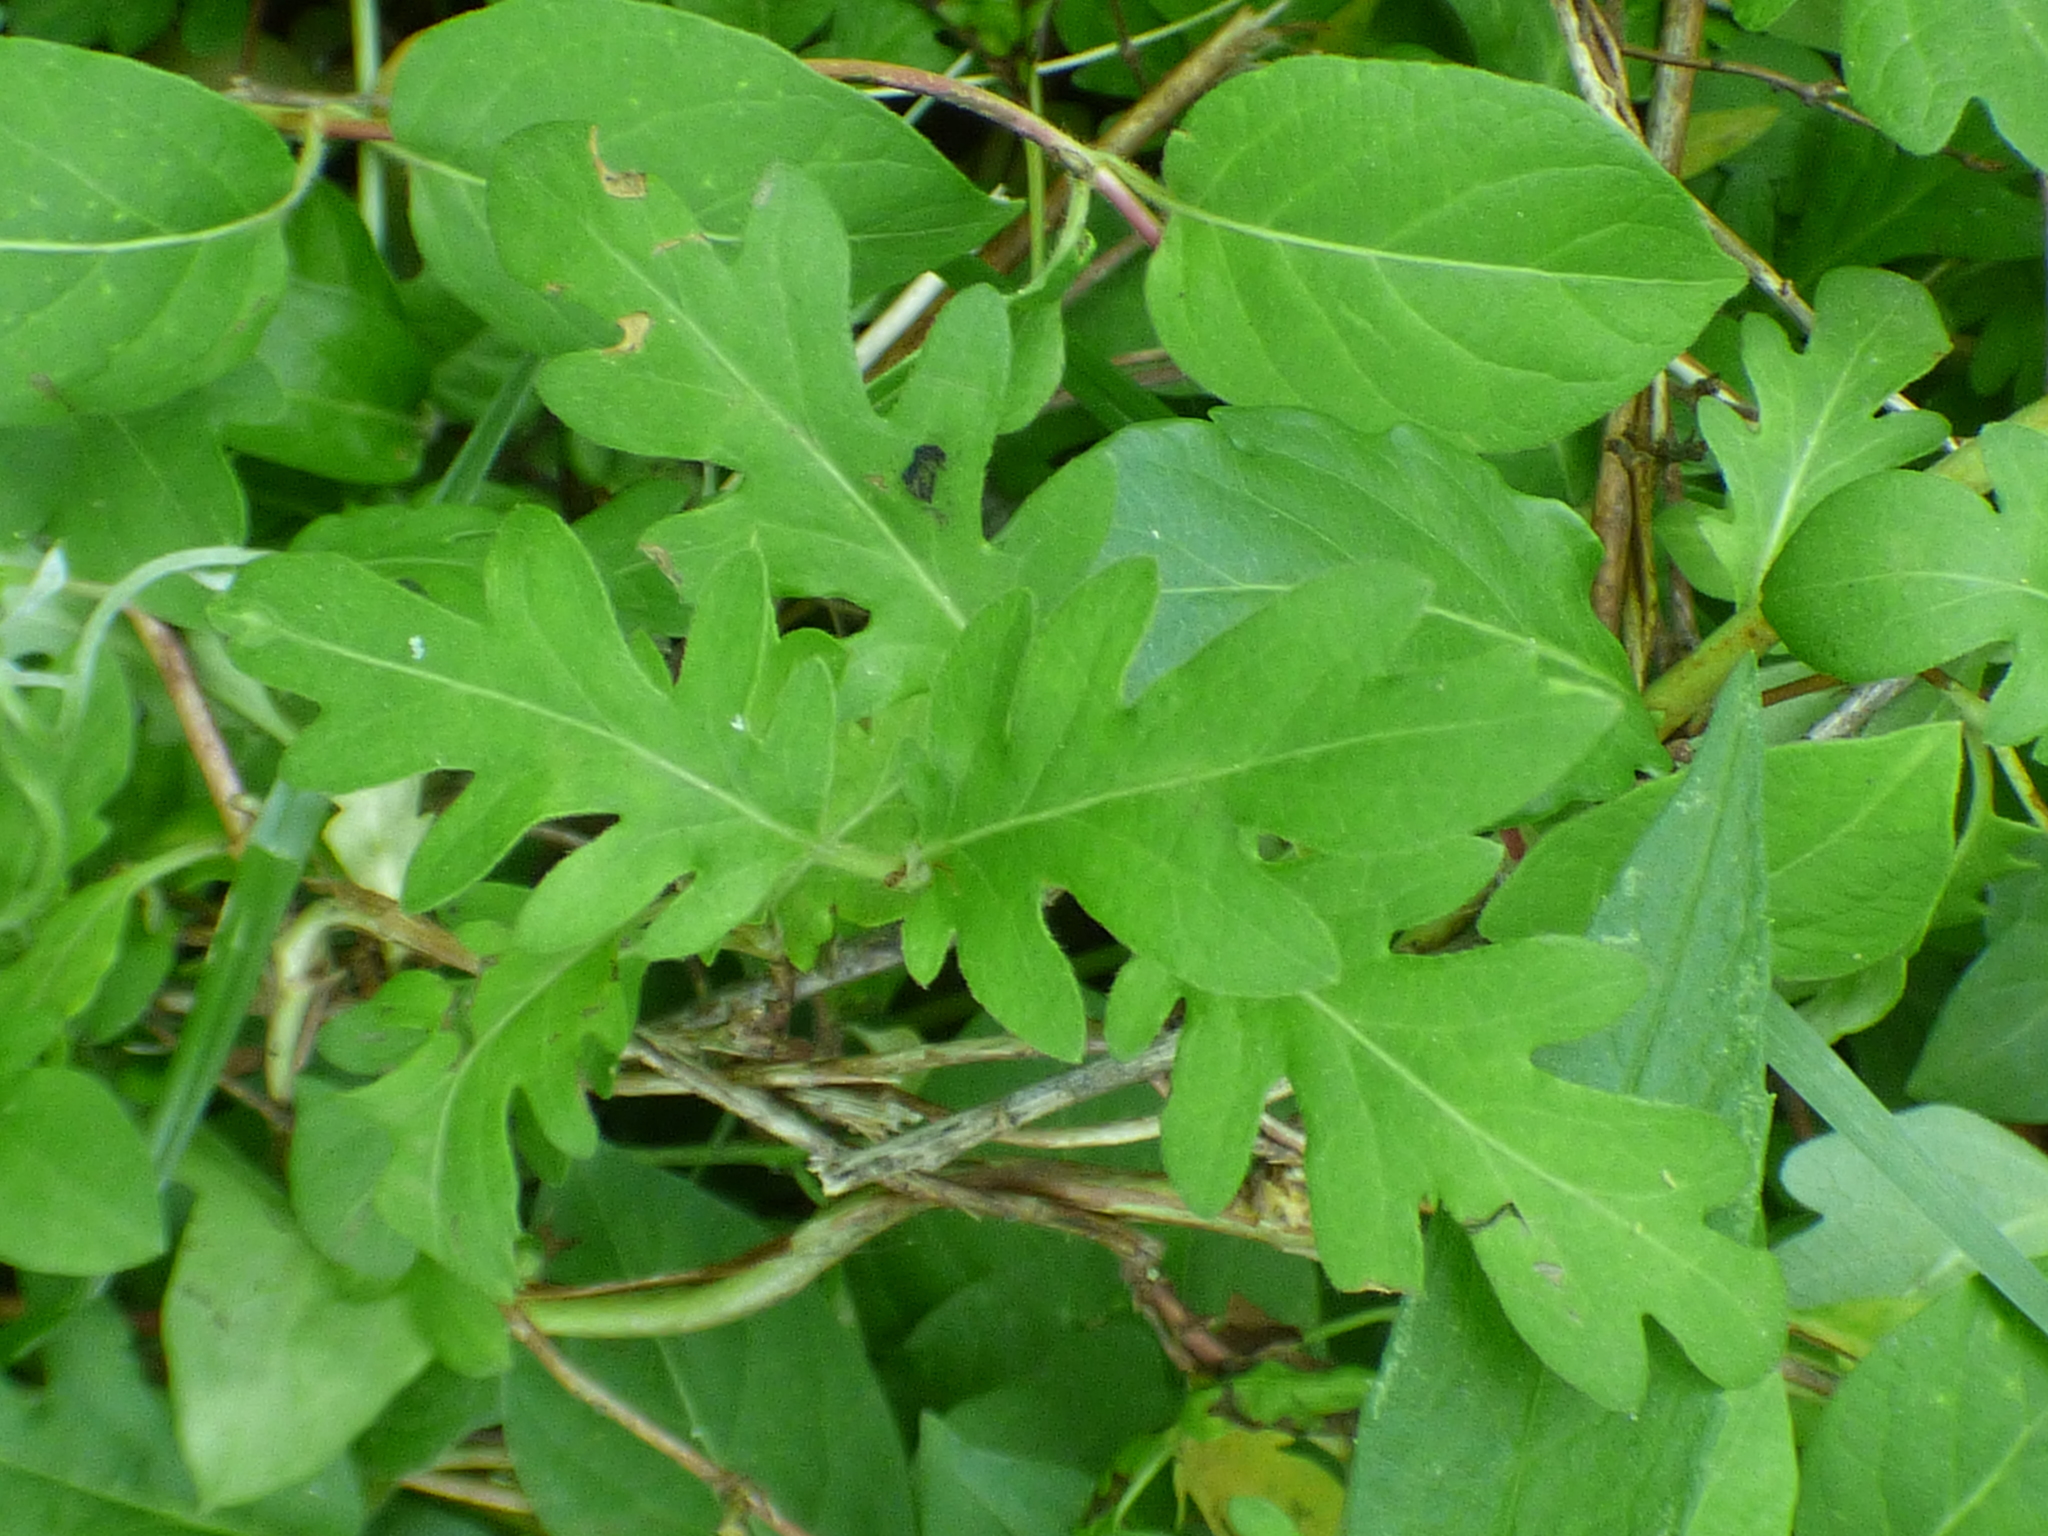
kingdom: Plantae
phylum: Tracheophyta
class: Magnoliopsida
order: Dipsacales
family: Caprifoliaceae
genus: Lonicera
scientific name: Lonicera japonica
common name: Japanese honeysuckle
